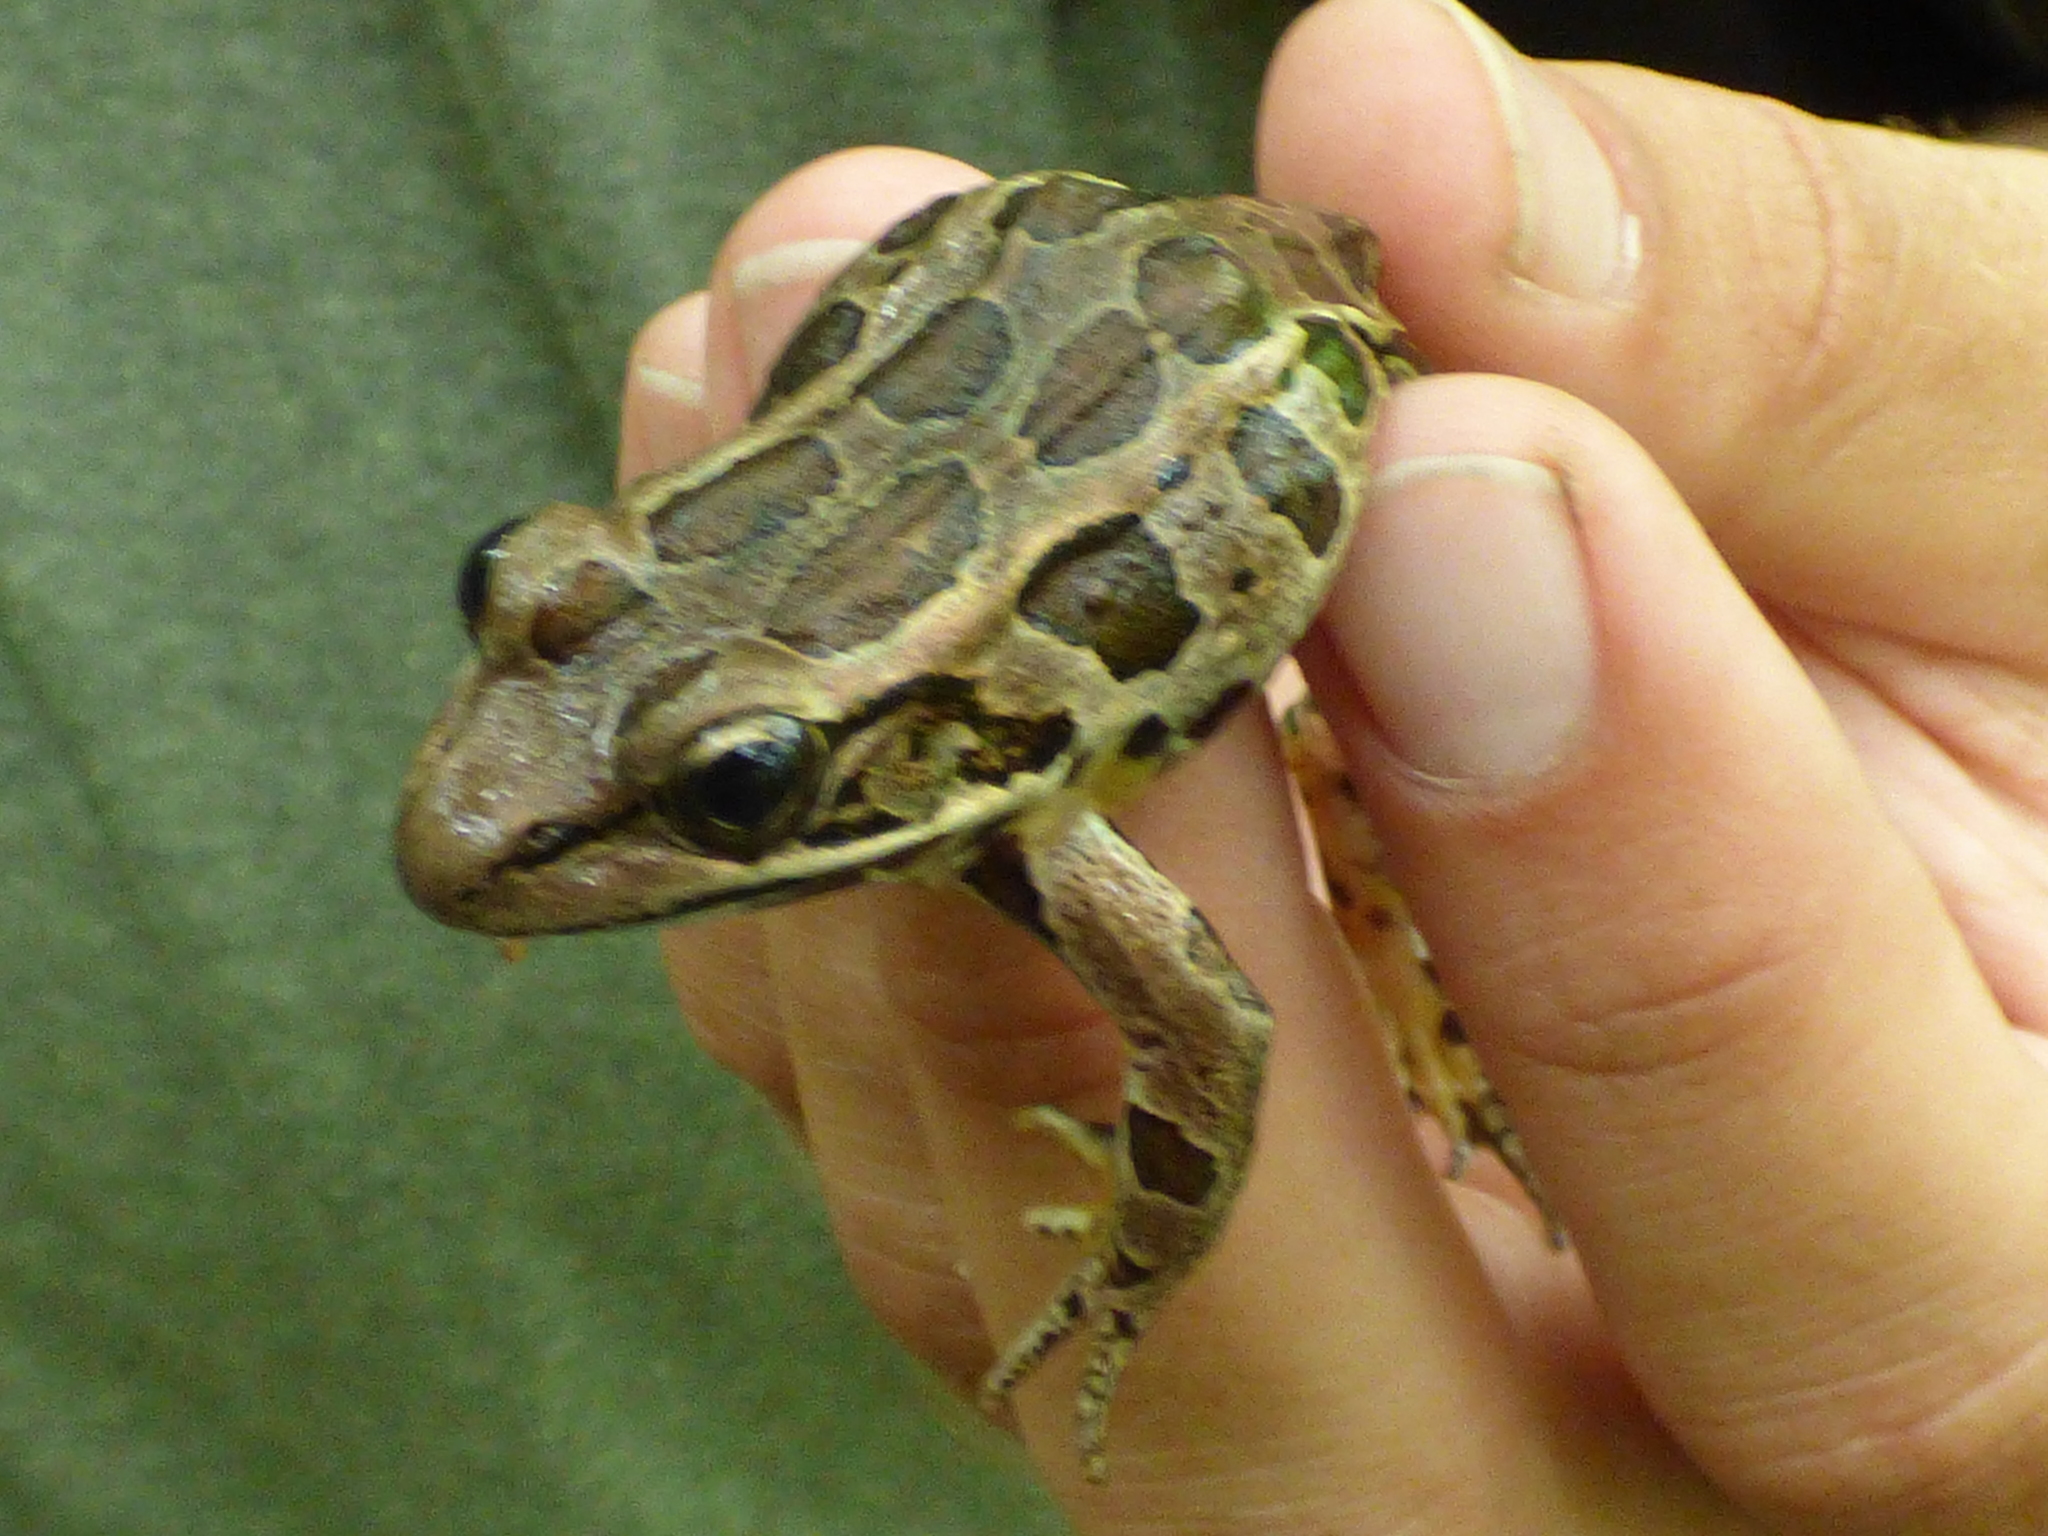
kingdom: Animalia
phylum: Chordata
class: Amphibia
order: Anura
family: Ranidae
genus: Lithobates
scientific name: Lithobates palustris
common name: Pickerel frog
